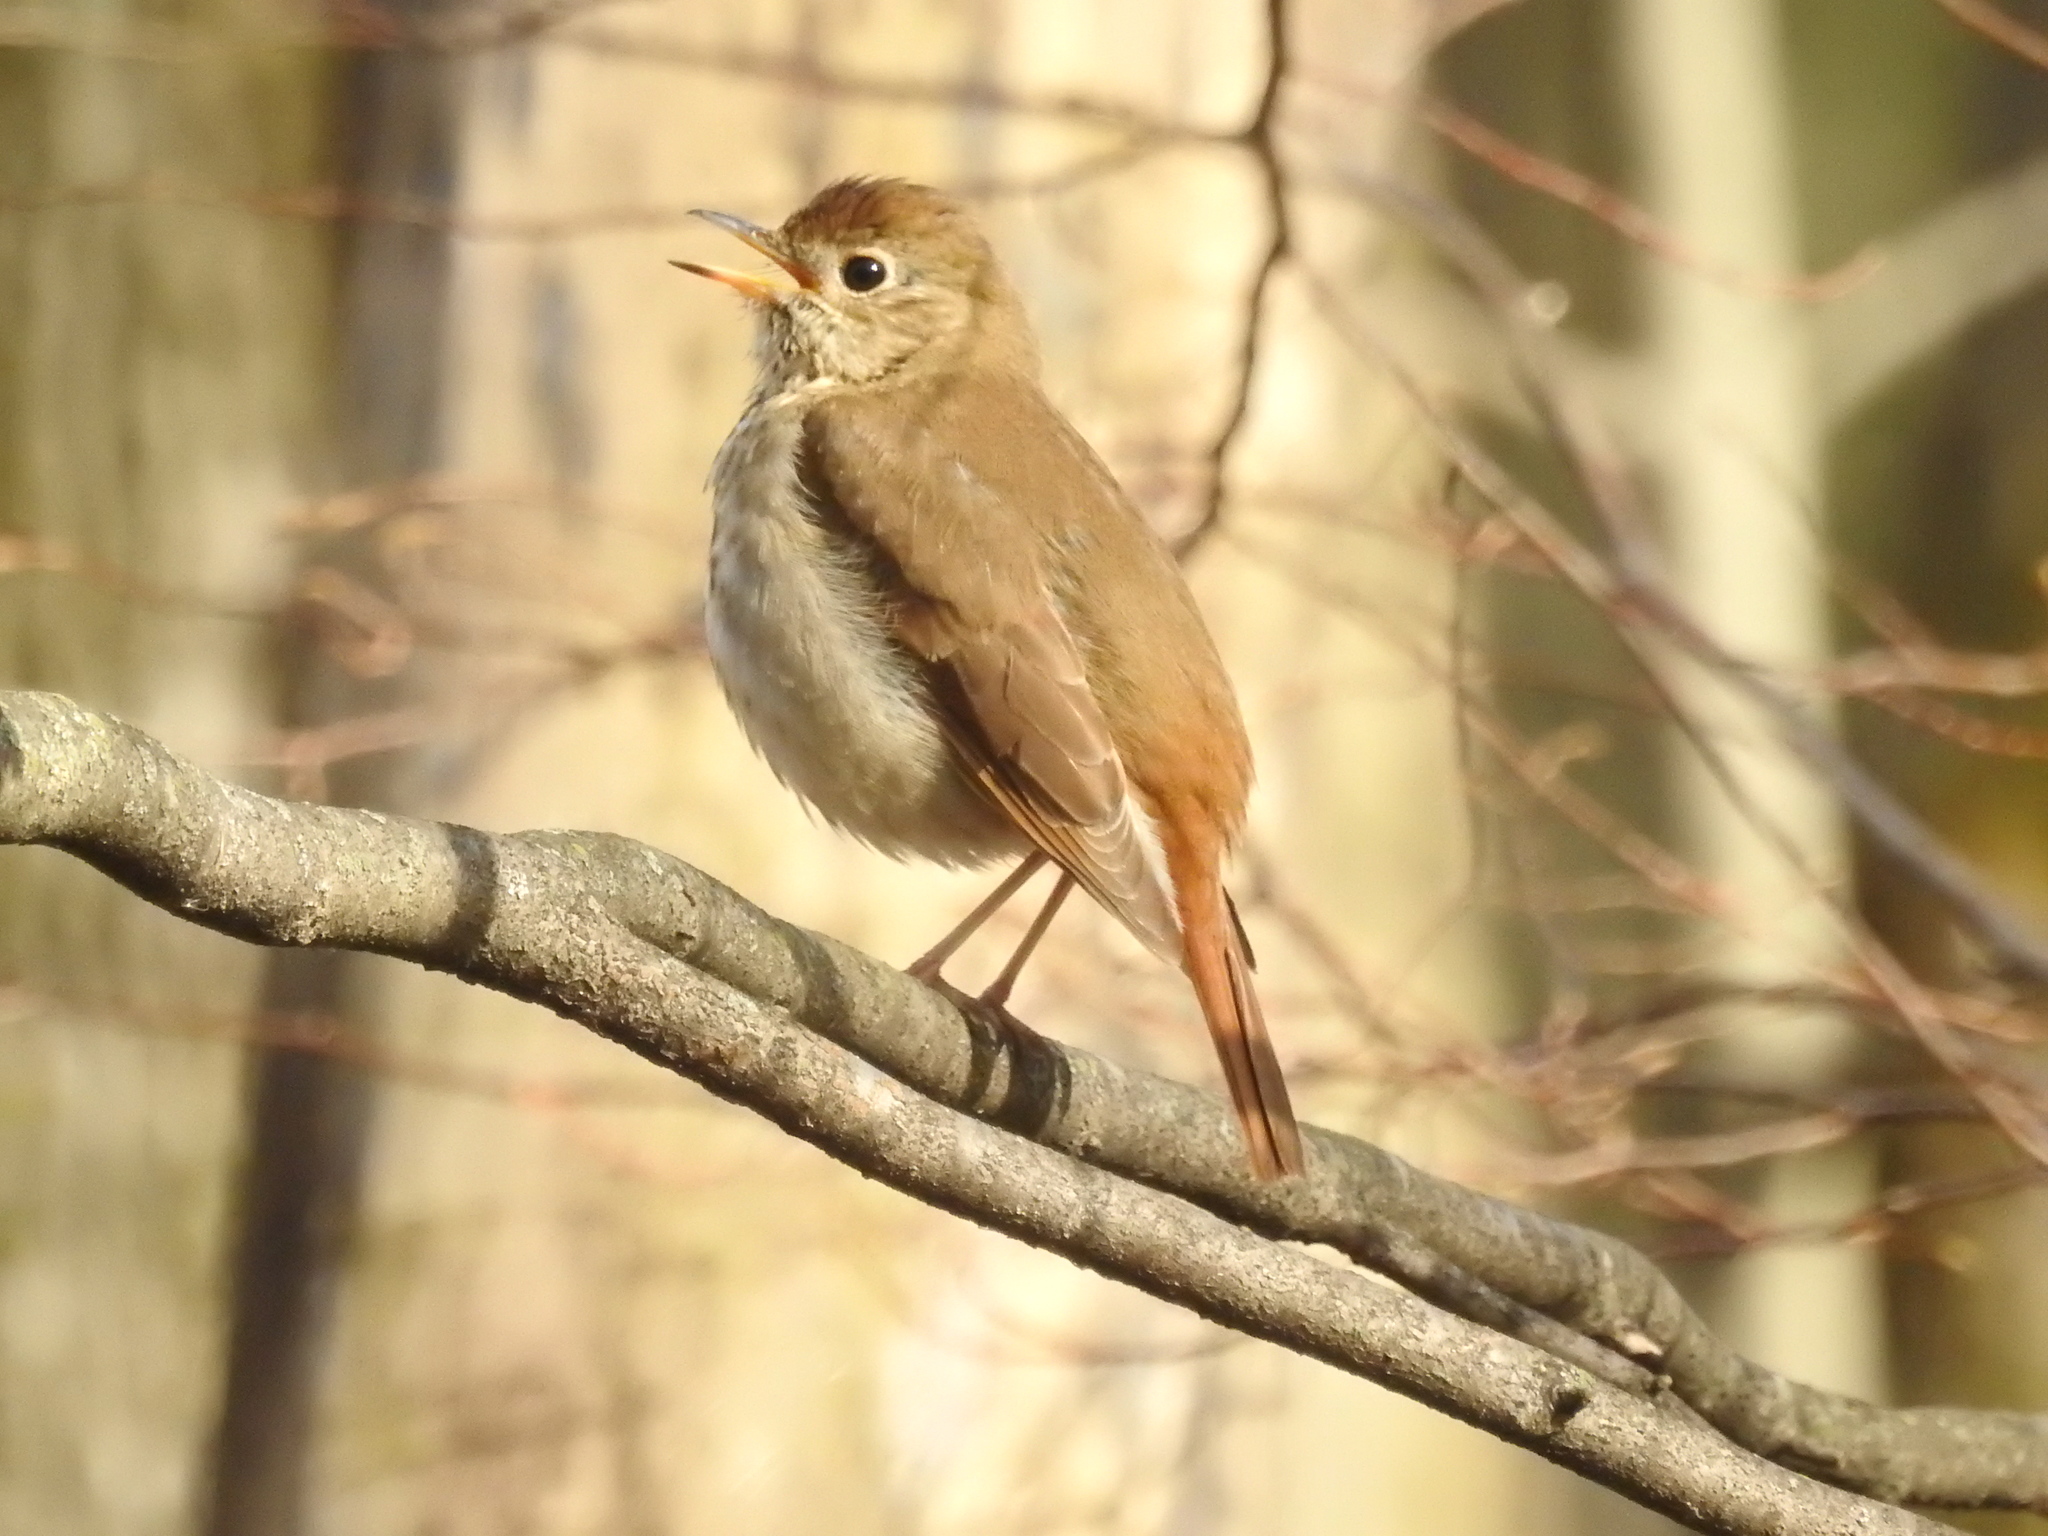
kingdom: Animalia
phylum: Chordata
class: Aves
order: Passeriformes
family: Turdidae
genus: Catharus
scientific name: Catharus guttatus
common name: Hermit thrush
